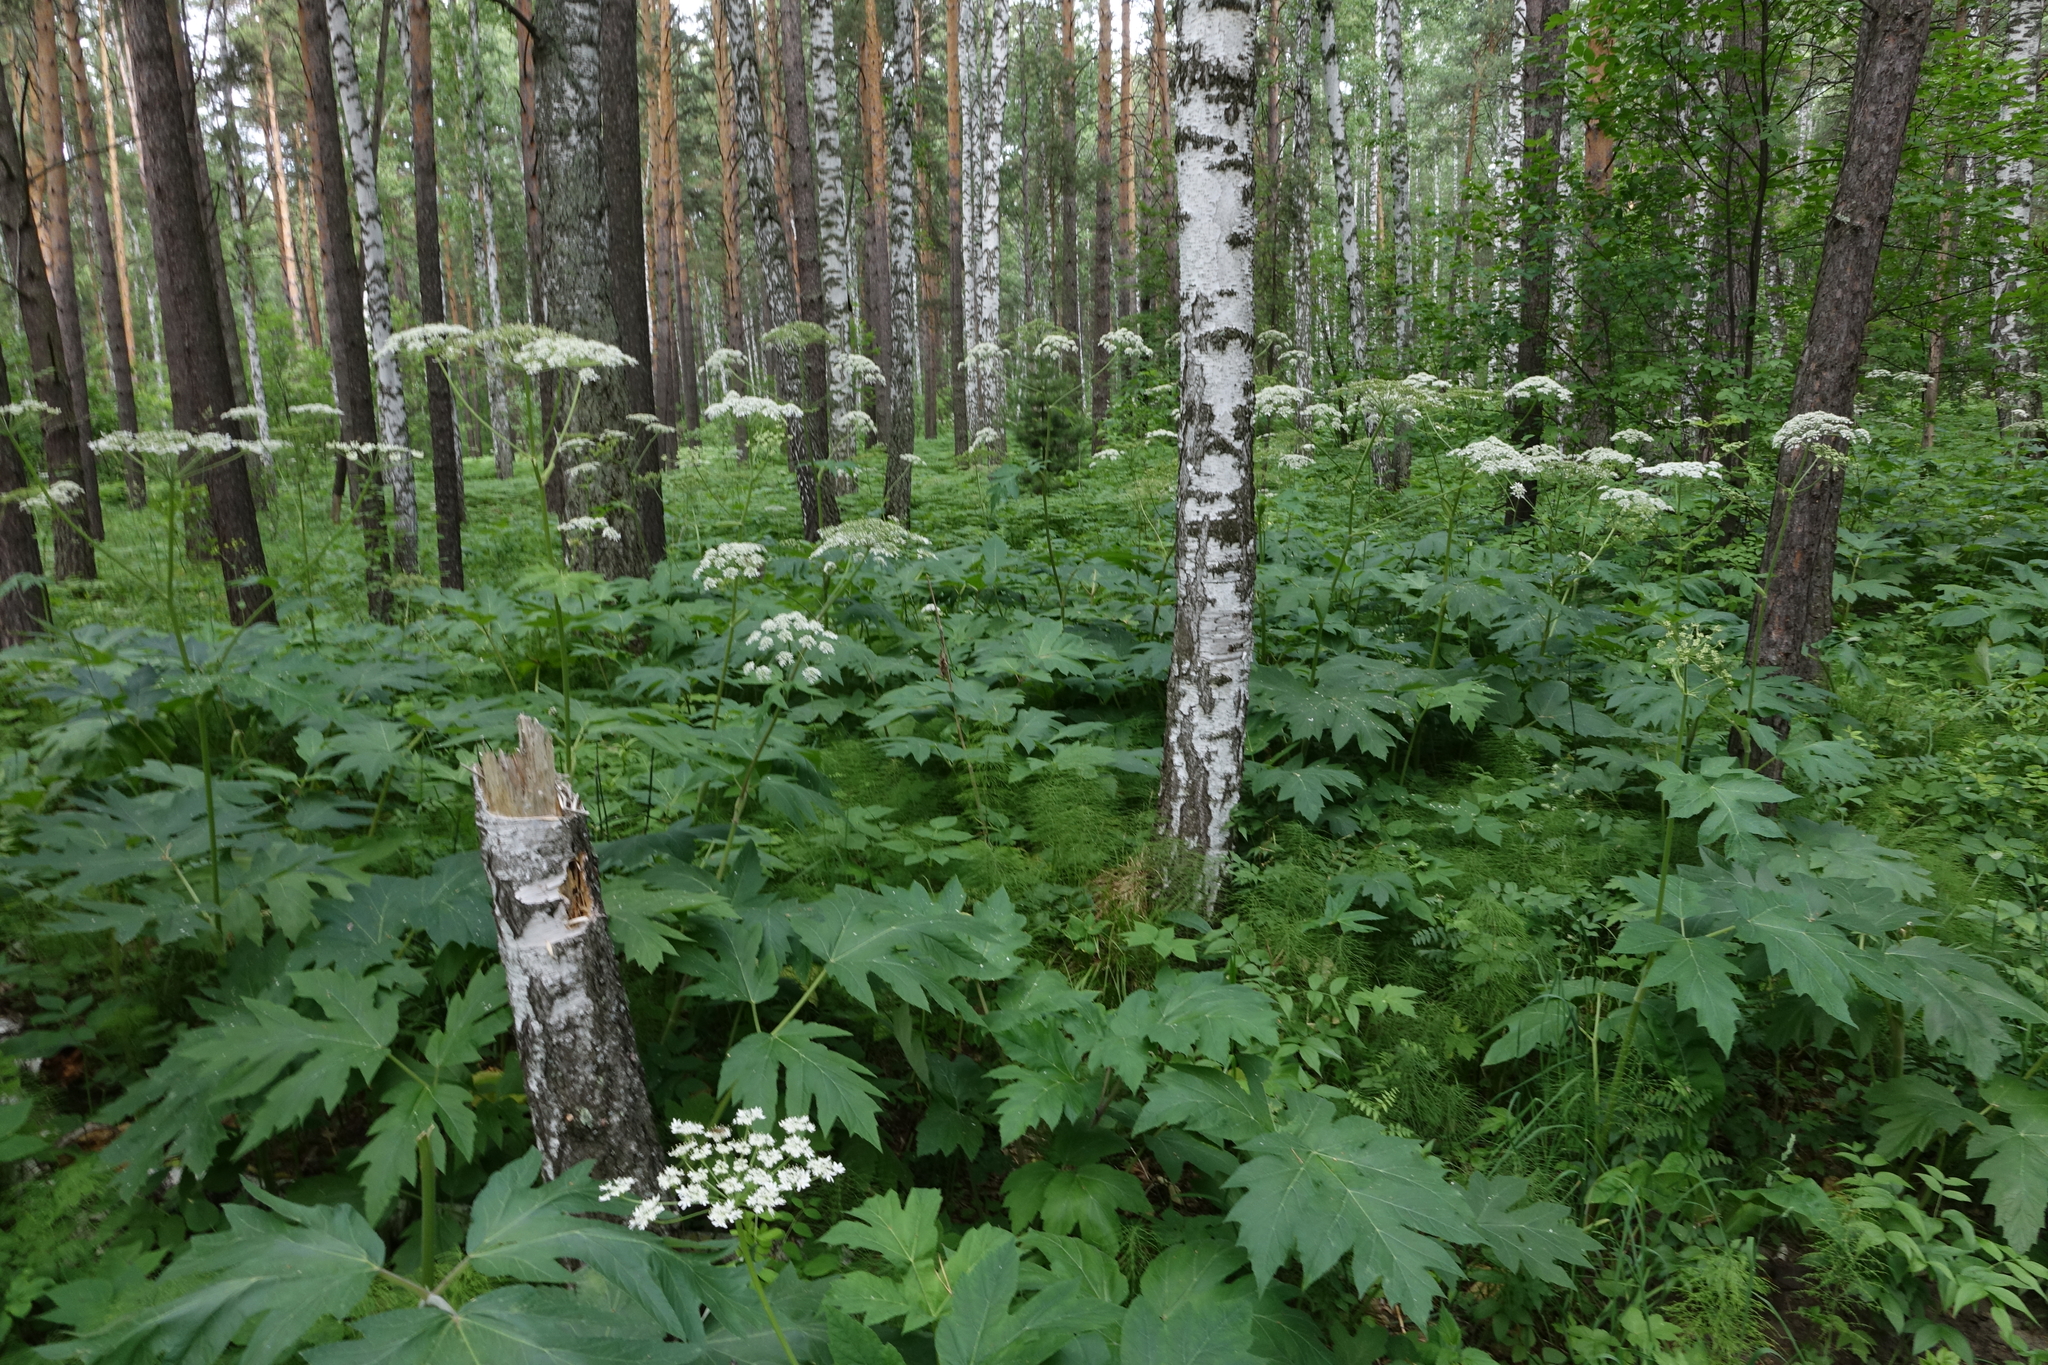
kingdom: Plantae
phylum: Tracheophyta
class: Magnoliopsida
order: Apiales
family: Apiaceae
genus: Heracleum
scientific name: Heracleum dissectum
